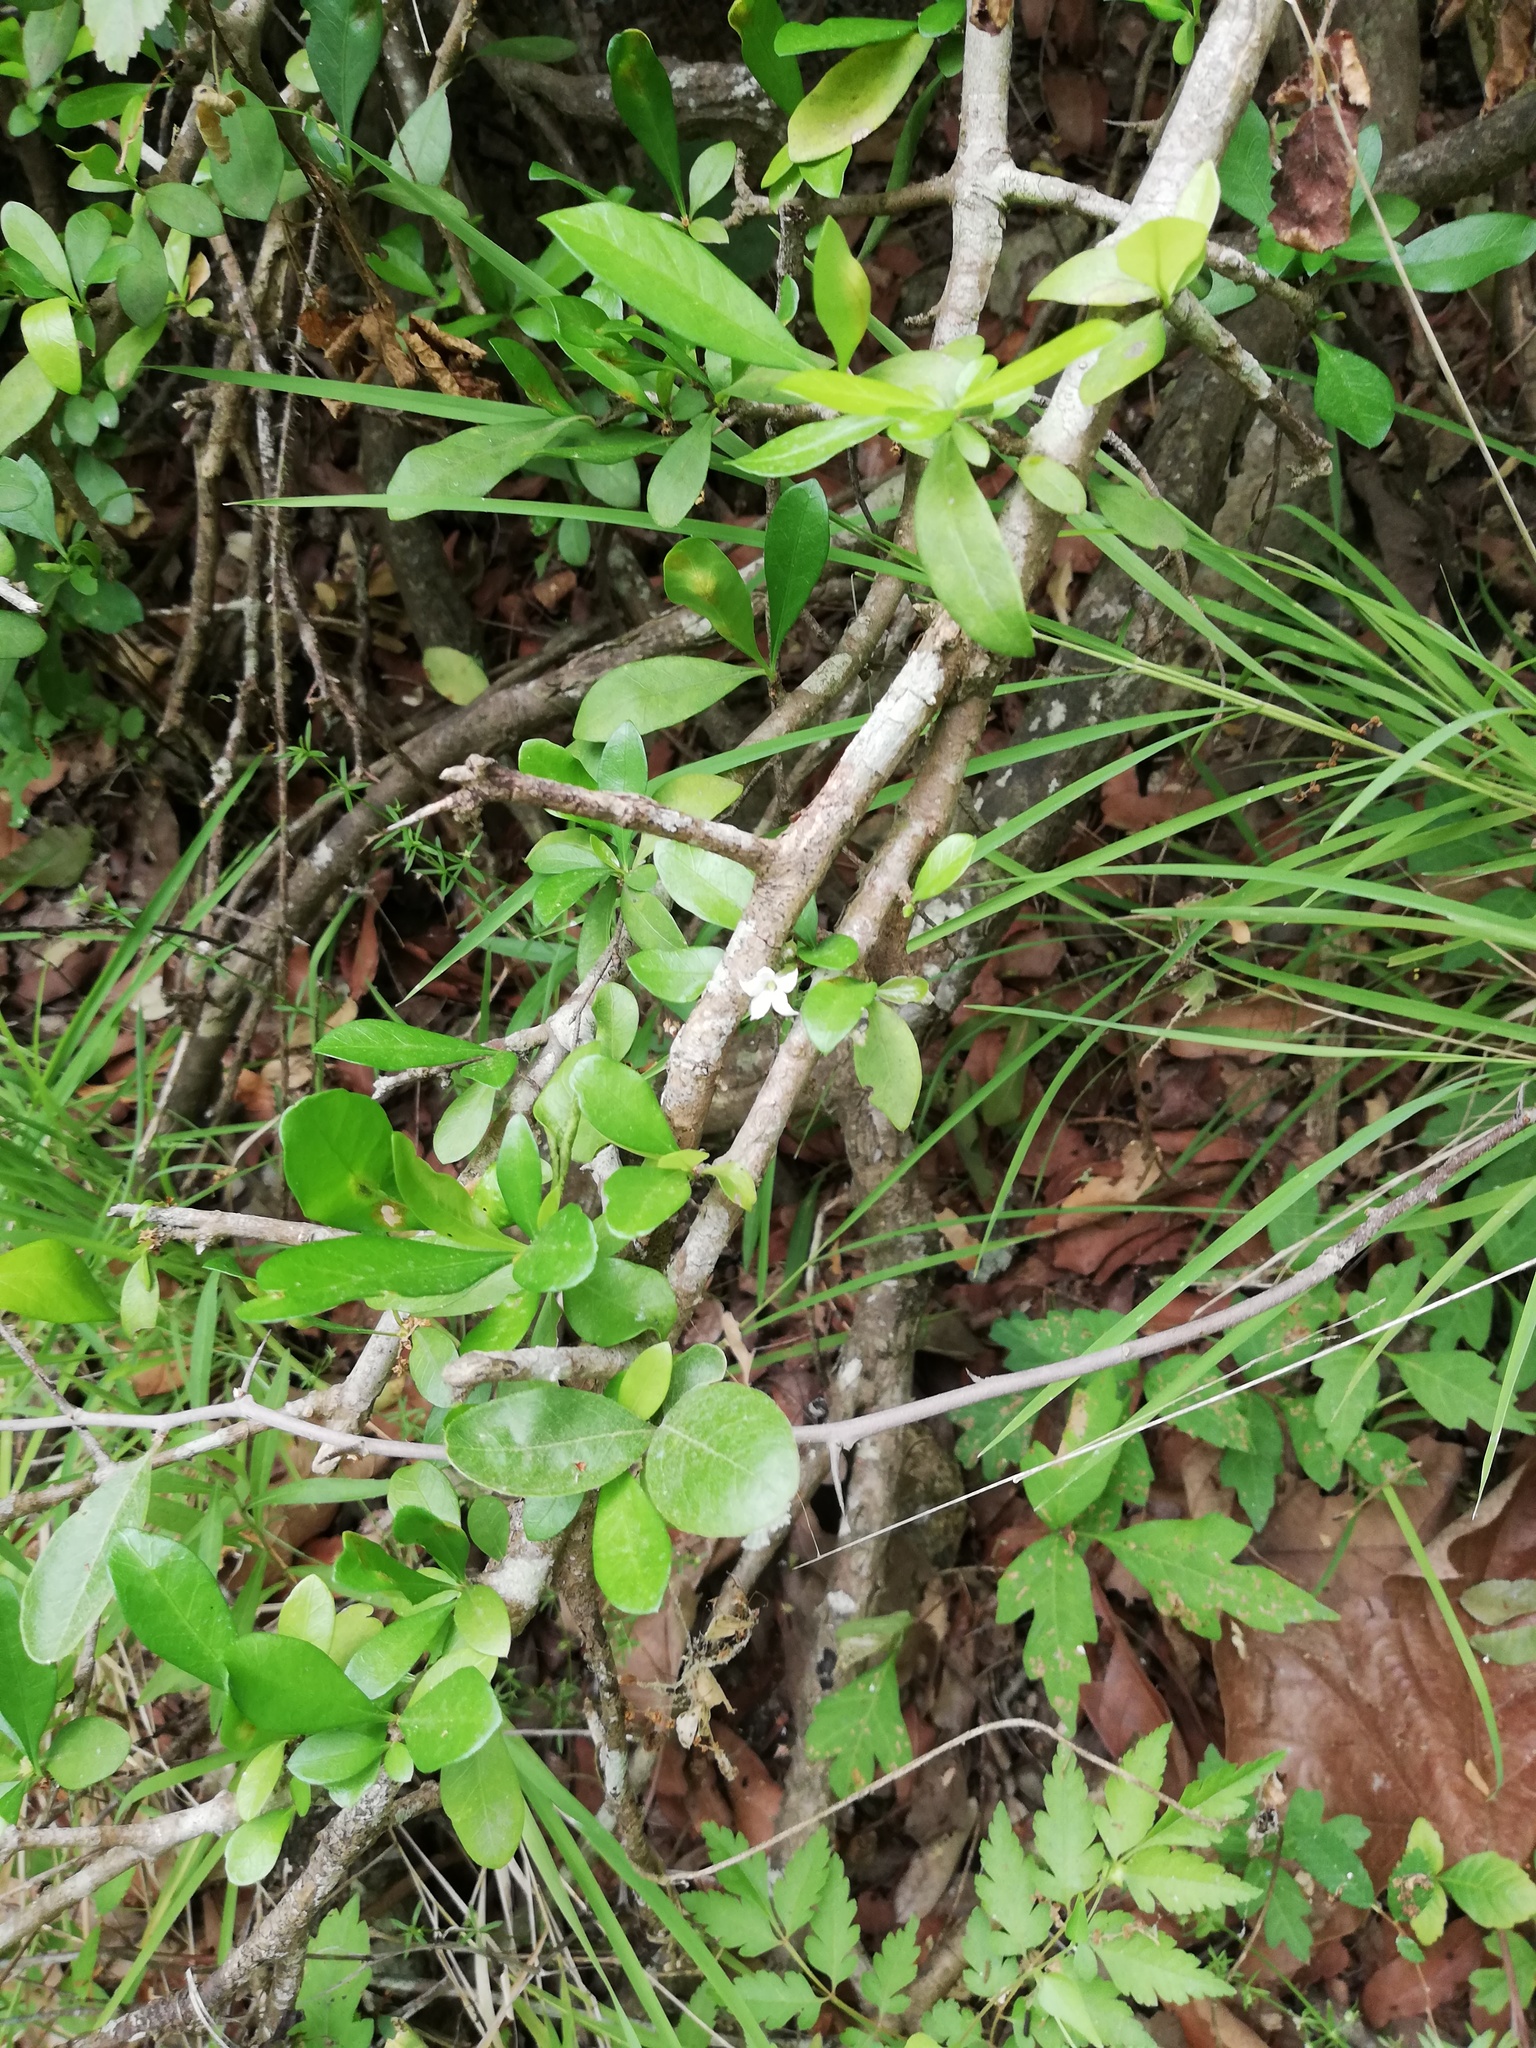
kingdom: Plantae
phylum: Tracheophyta
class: Magnoliopsida
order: Gentianales
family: Rubiaceae
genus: Randia
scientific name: Randia aculeata
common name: Inkberry
